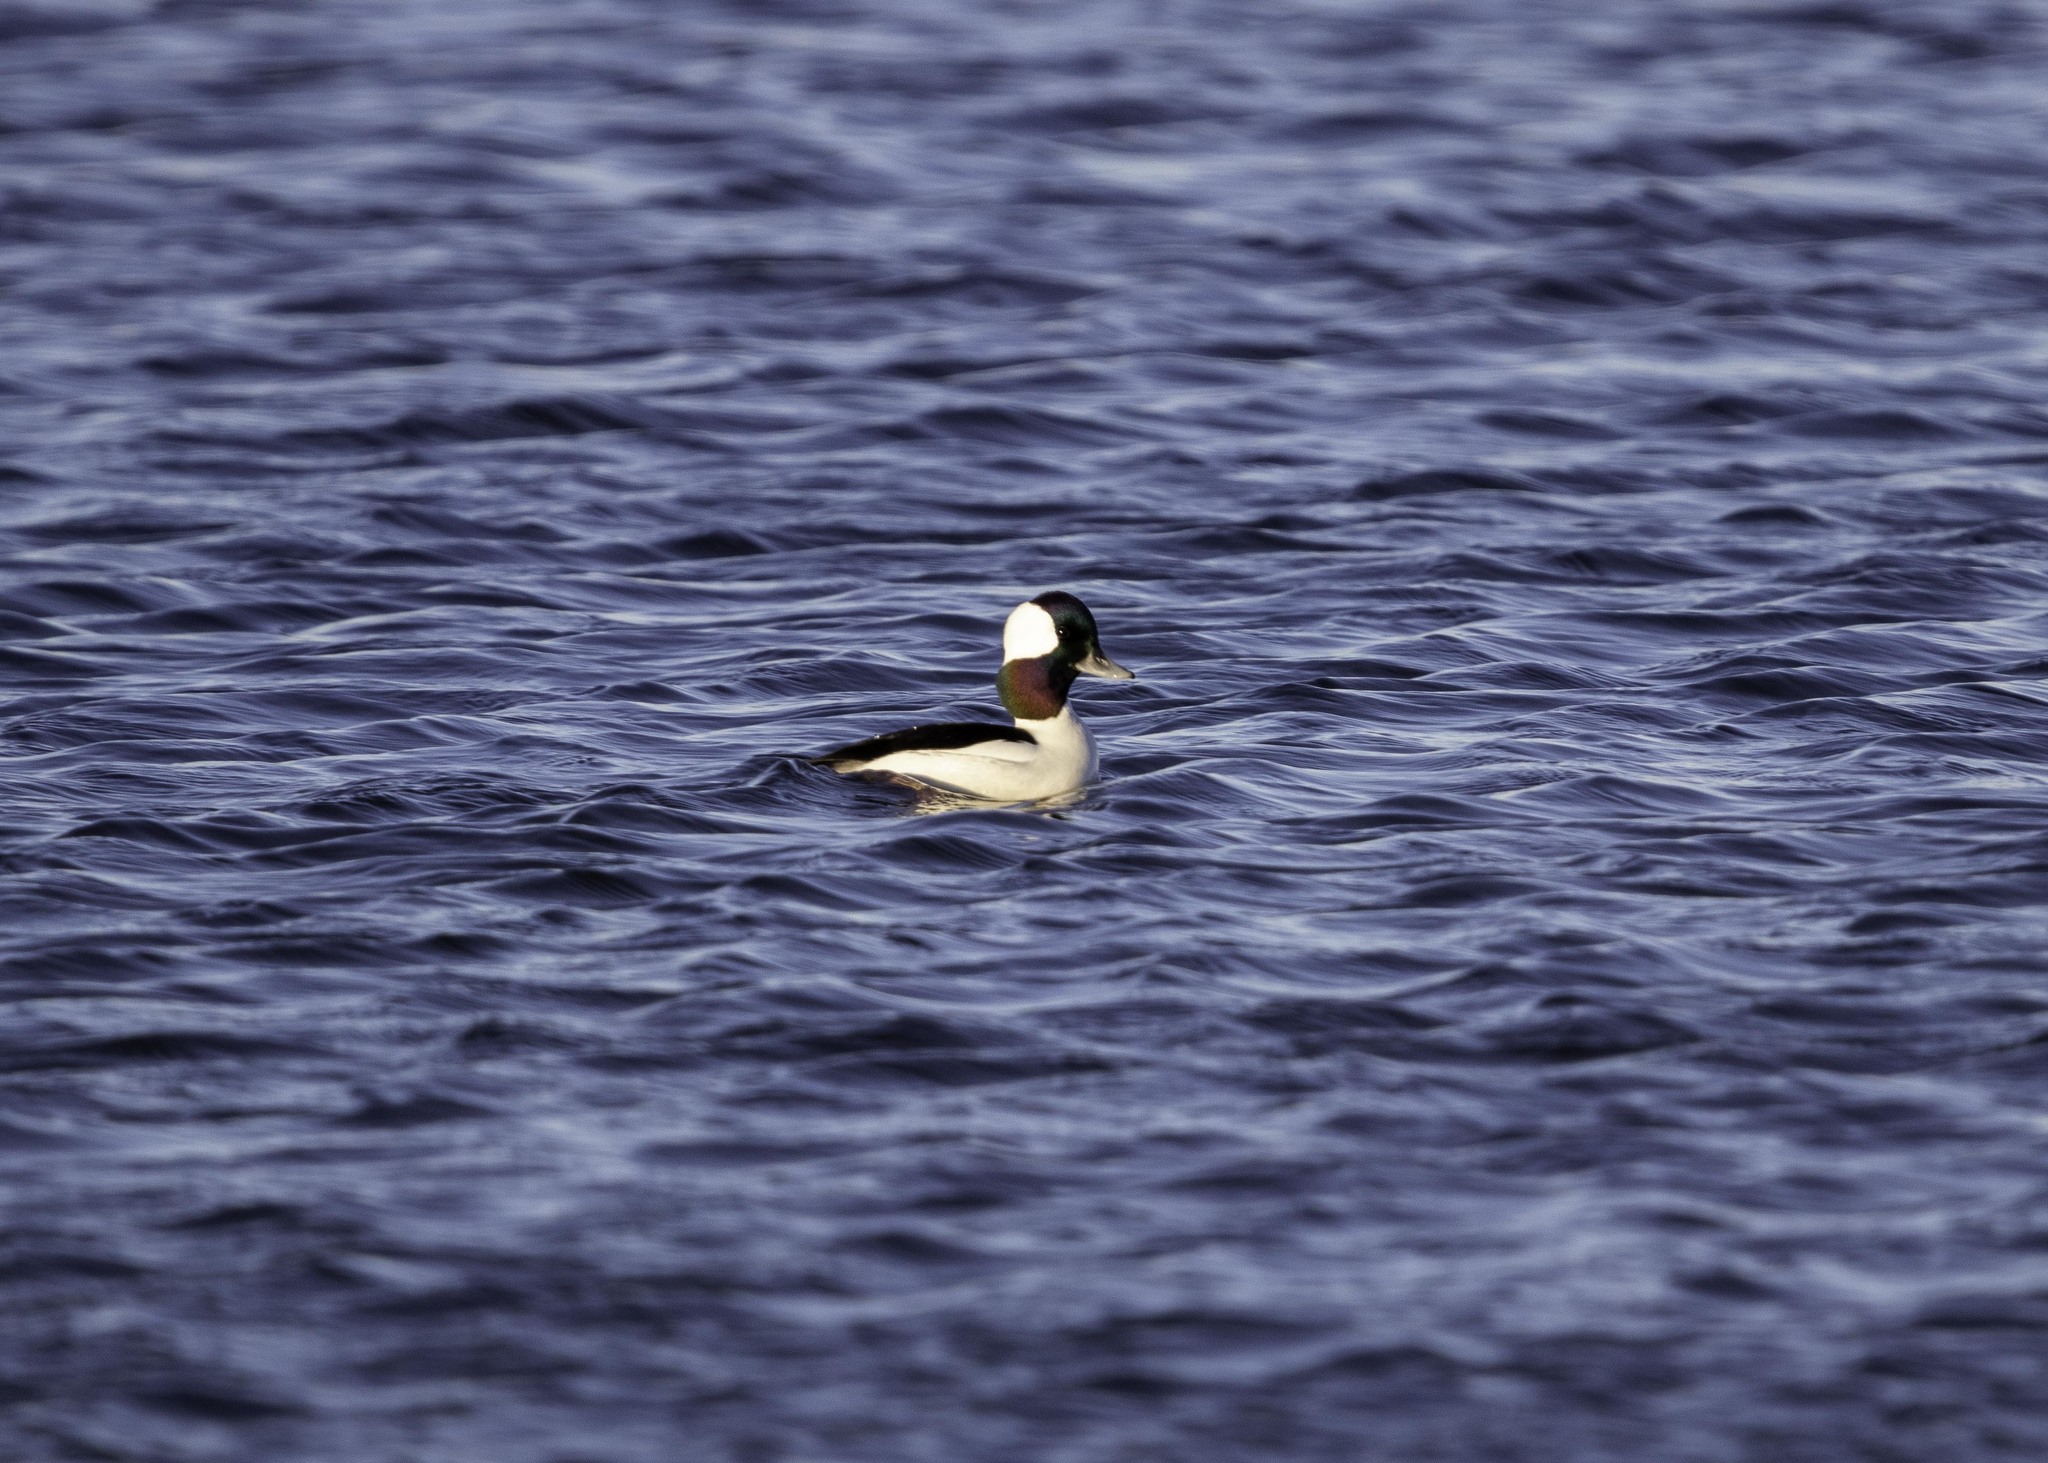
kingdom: Animalia
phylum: Chordata
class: Aves
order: Anseriformes
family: Anatidae
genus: Bucephala
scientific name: Bucephala albeola
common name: Bufflehead
